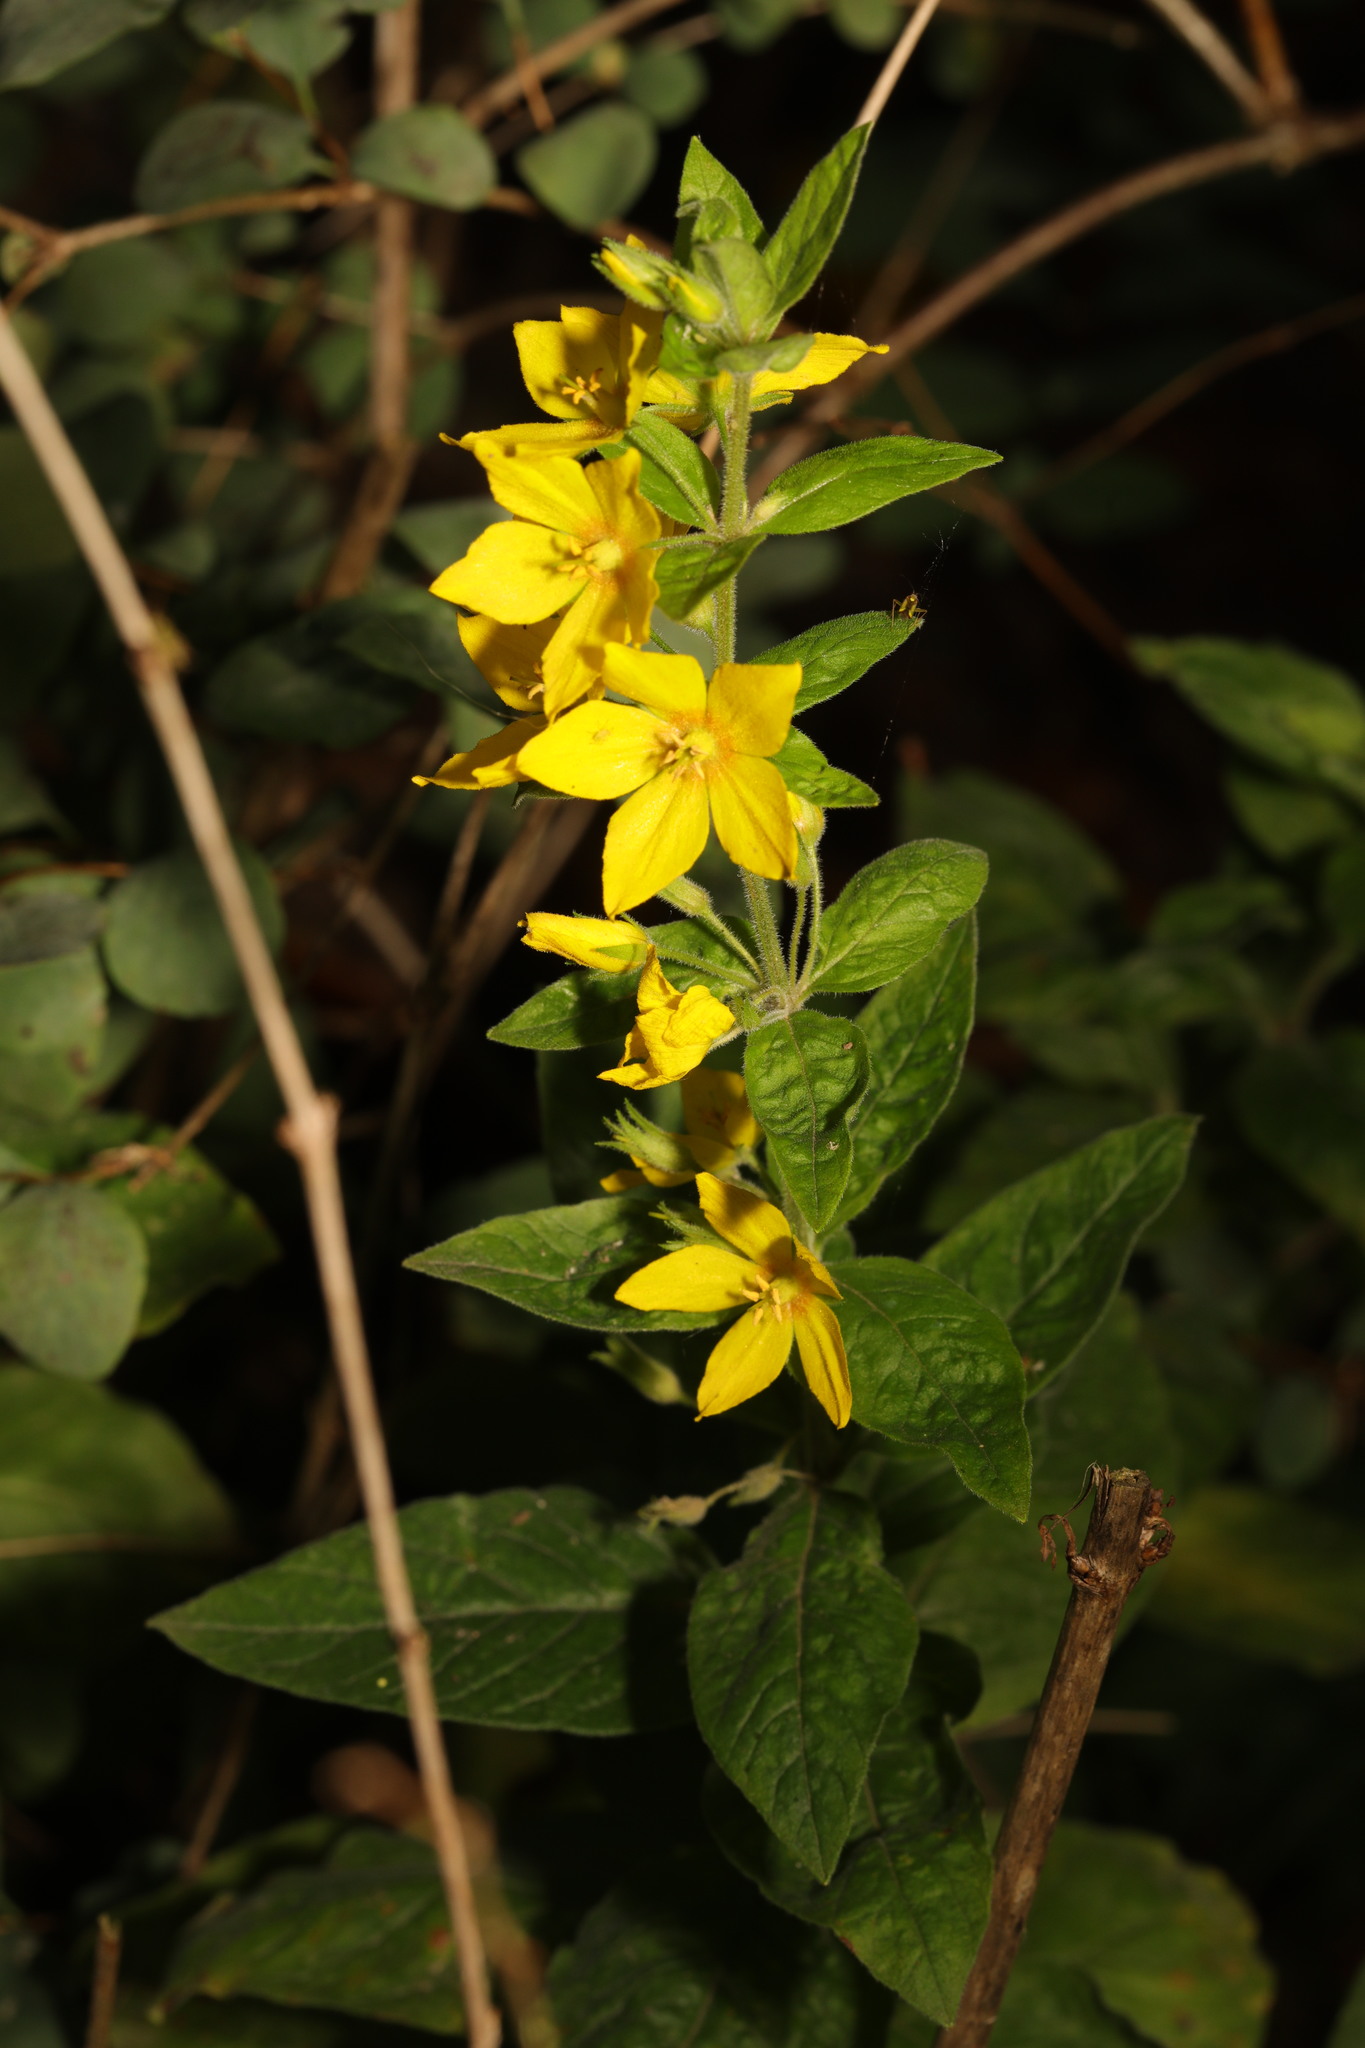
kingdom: Plantae
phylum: Tracheophyta
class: Magnoliopsida
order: Ericales
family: Primulaceae
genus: Lysimachia
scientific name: Lysimachia punctata
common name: Dotted loosestrife
